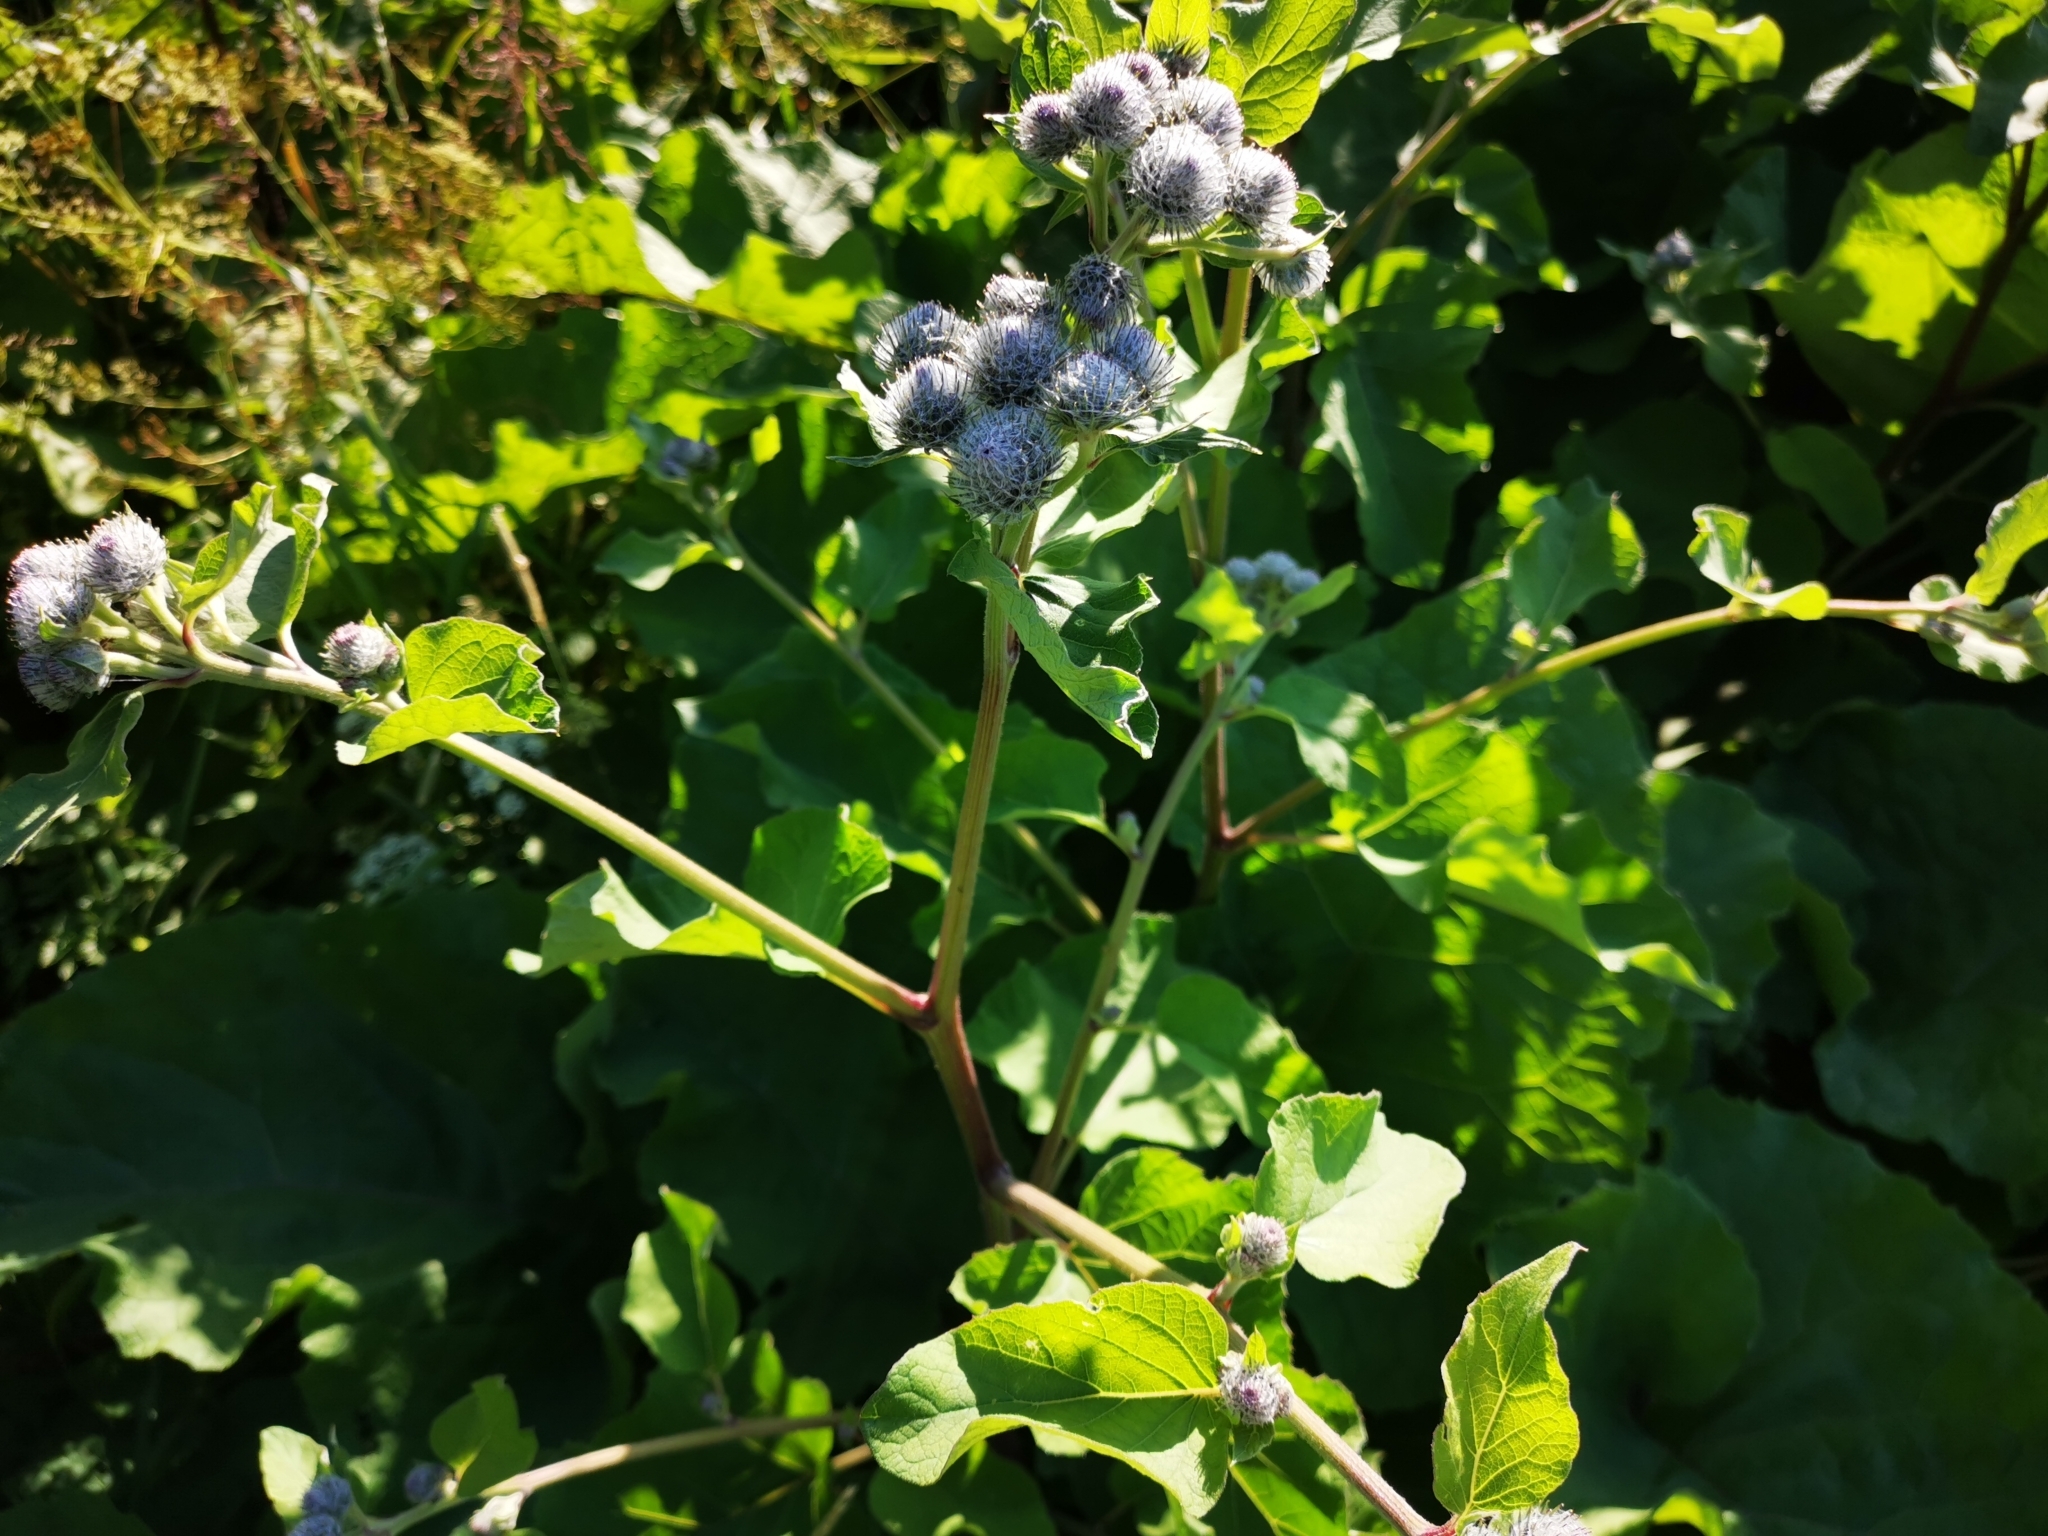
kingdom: Plantae
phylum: Tracheophyta
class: Magnoliopsida
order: Asterales
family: Asteraceae
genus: Arctium
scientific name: Arctium tomentosum
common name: Woolly burdock
